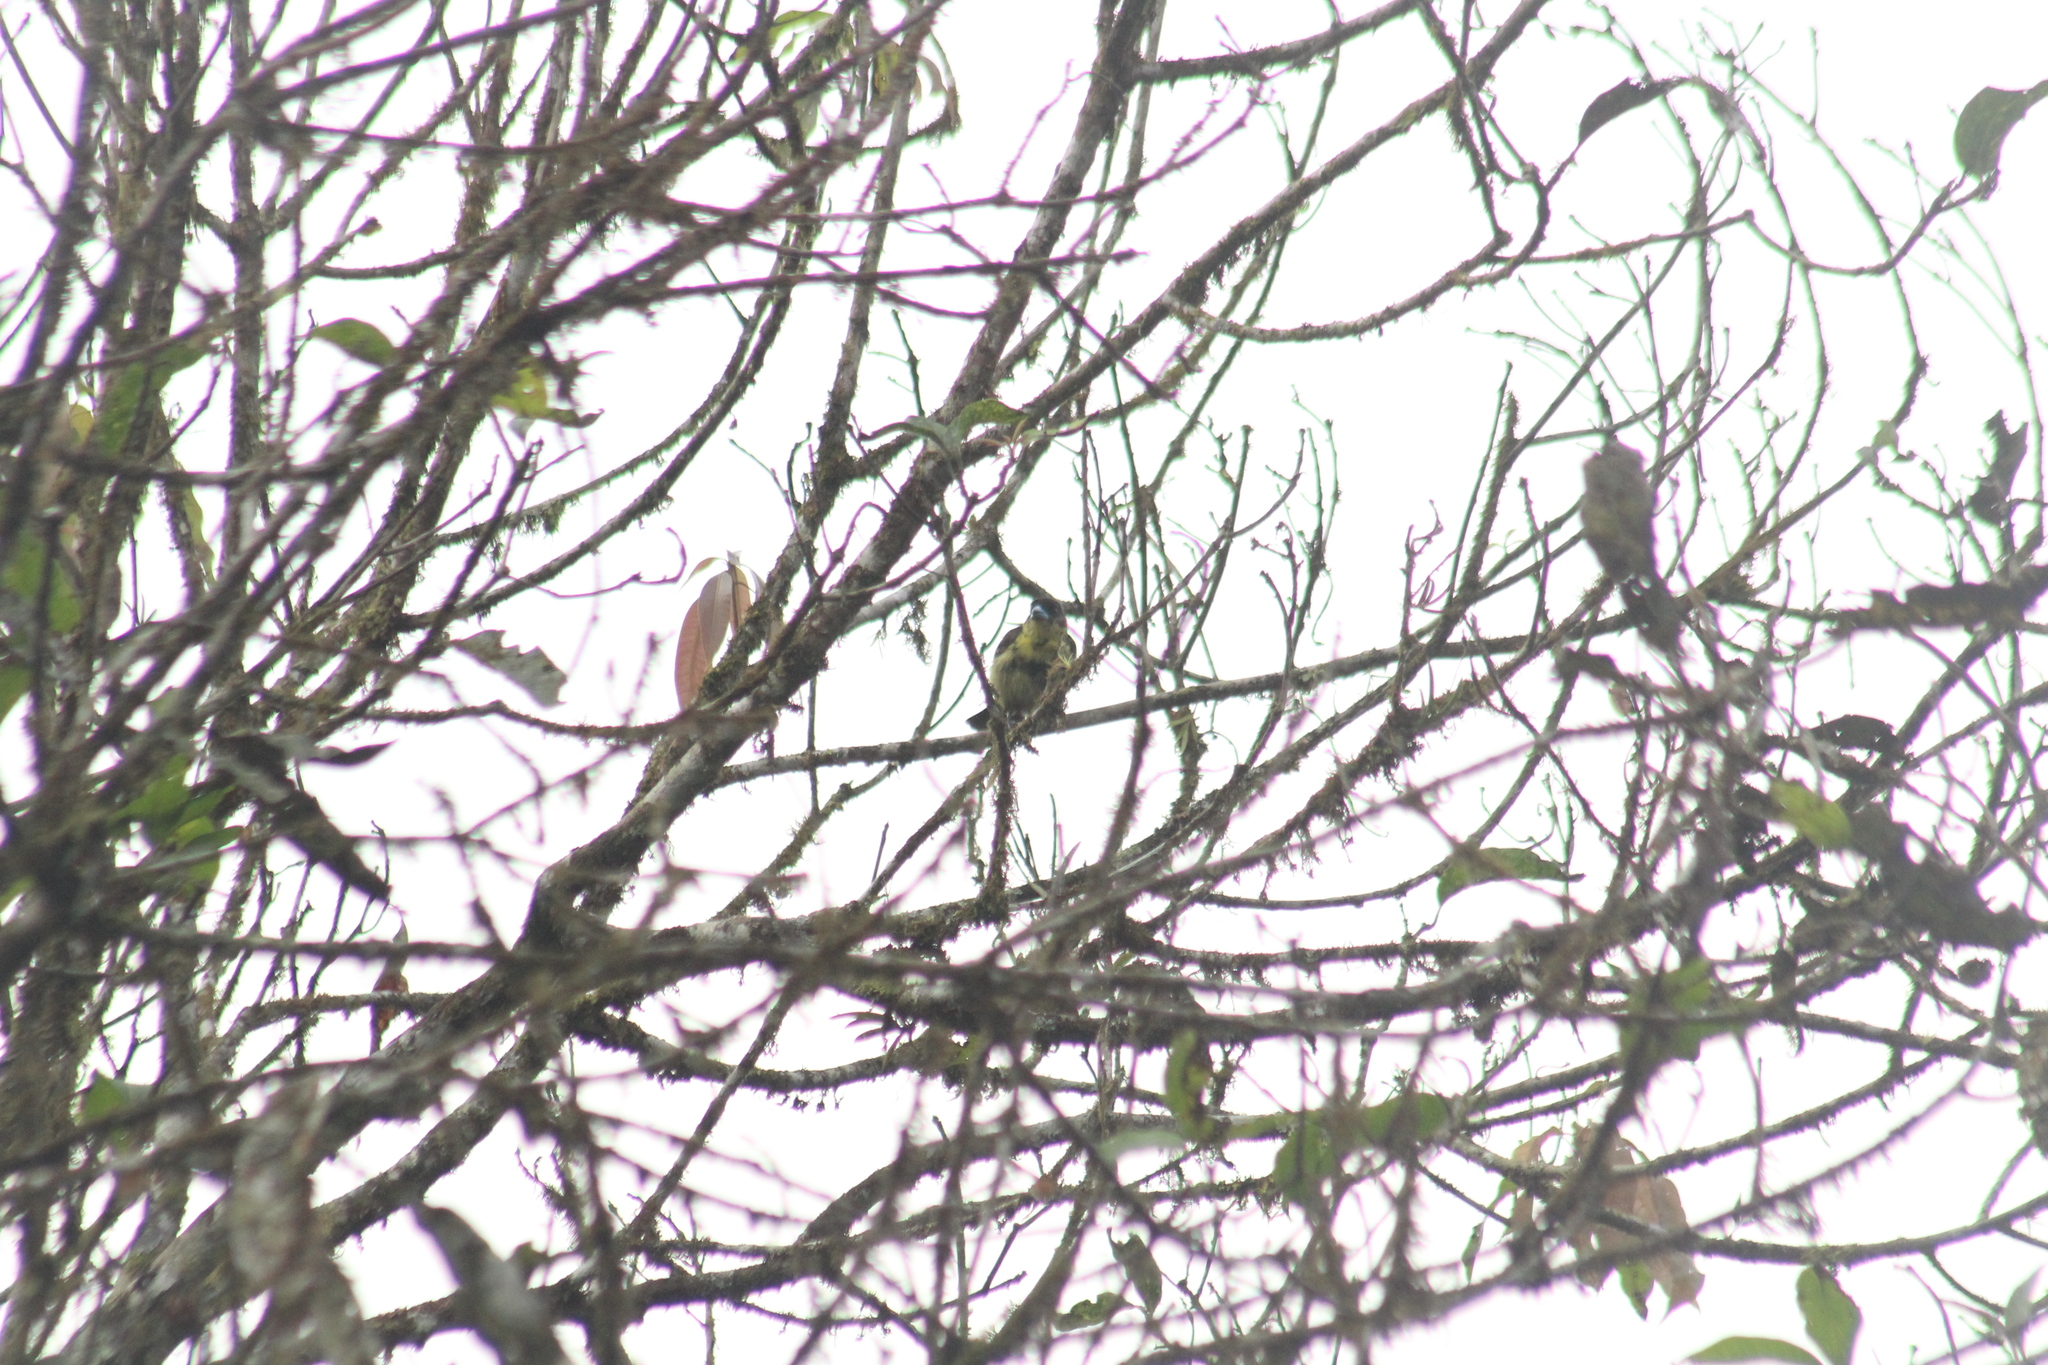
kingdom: Animalia
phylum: Chordata
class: Aves
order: Passeriformes
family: Thraupidae
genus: Ramphocelus
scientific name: Ramphocelus icteronotus
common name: Lemon-rumped tanager
